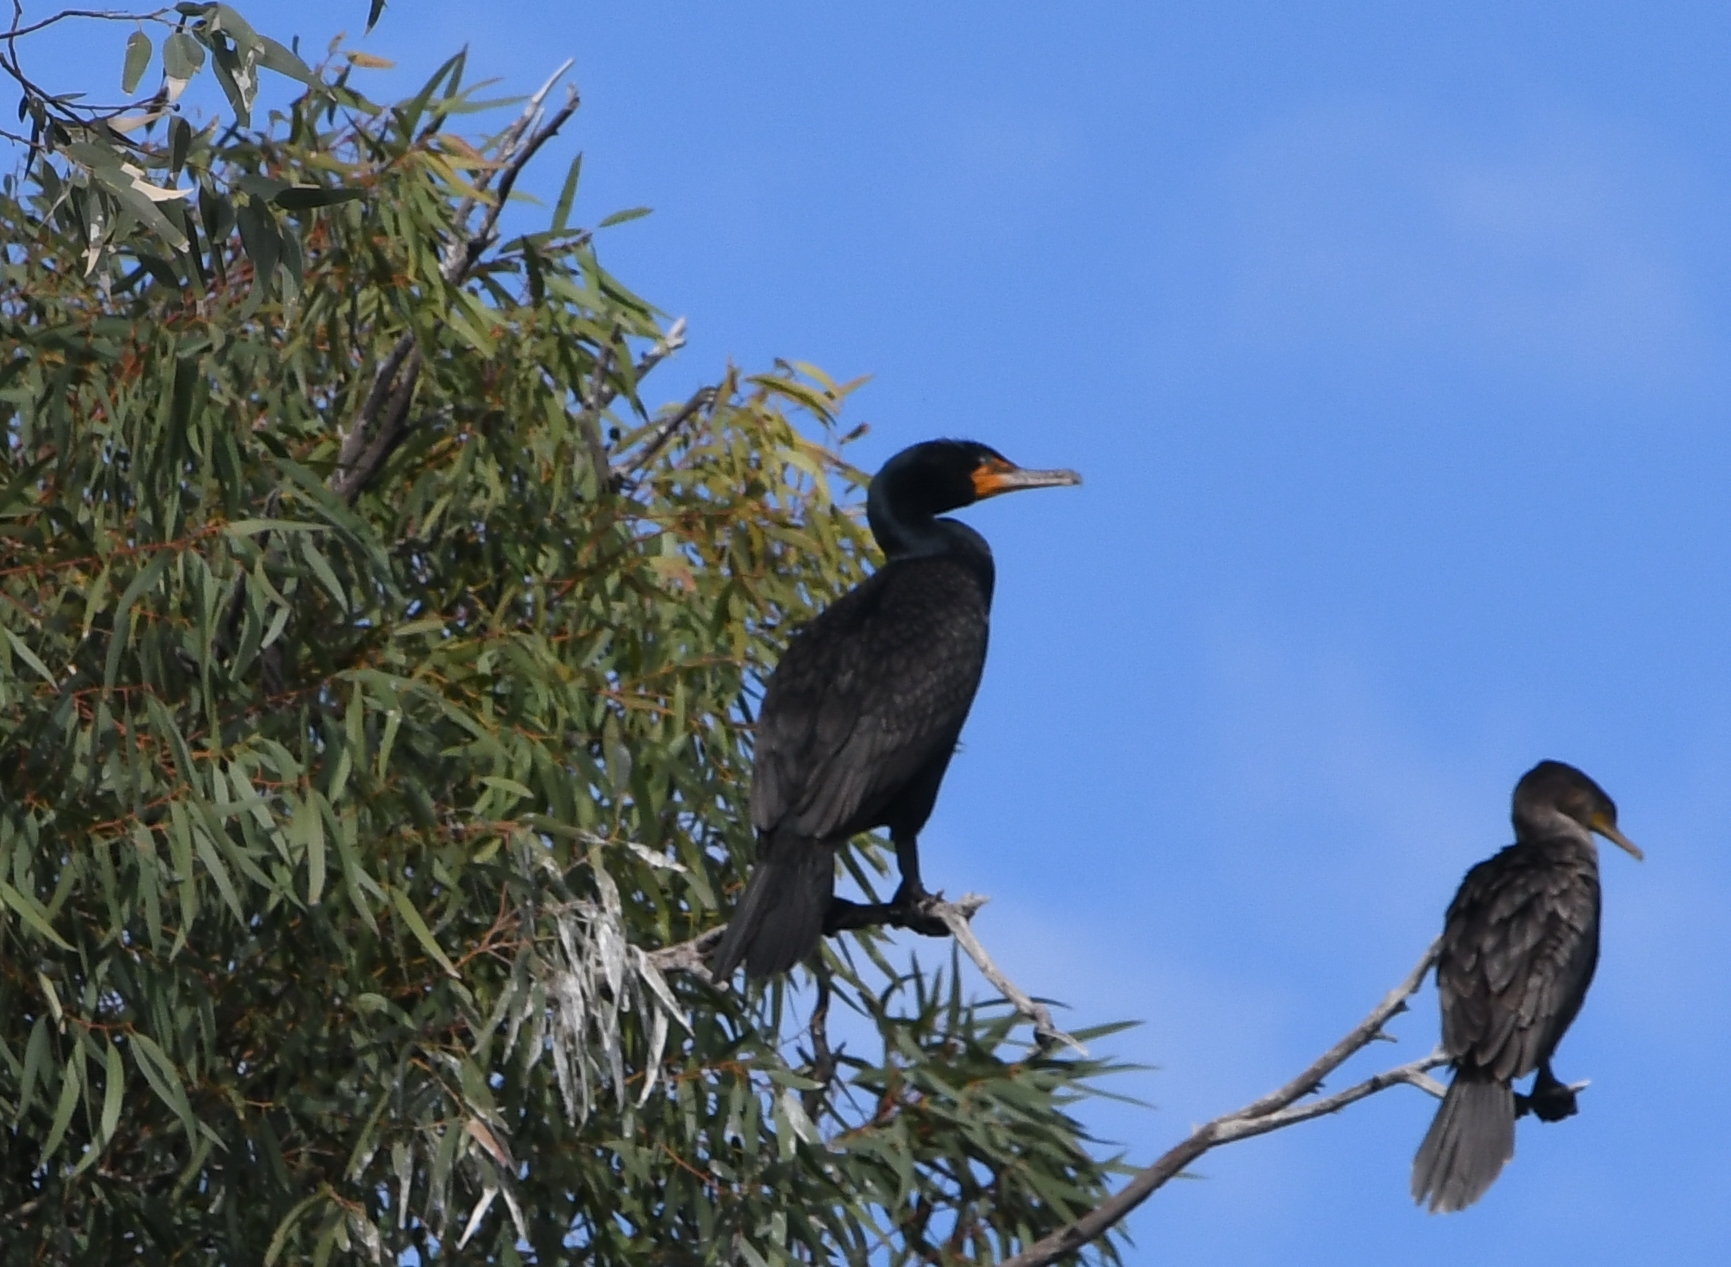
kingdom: Animalia
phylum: Chordata
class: Aves
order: Suliformes
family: Phalacrocoracidae
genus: Phalacrocorax
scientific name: Phalacrocorax auritus
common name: Double-crested cormorant
